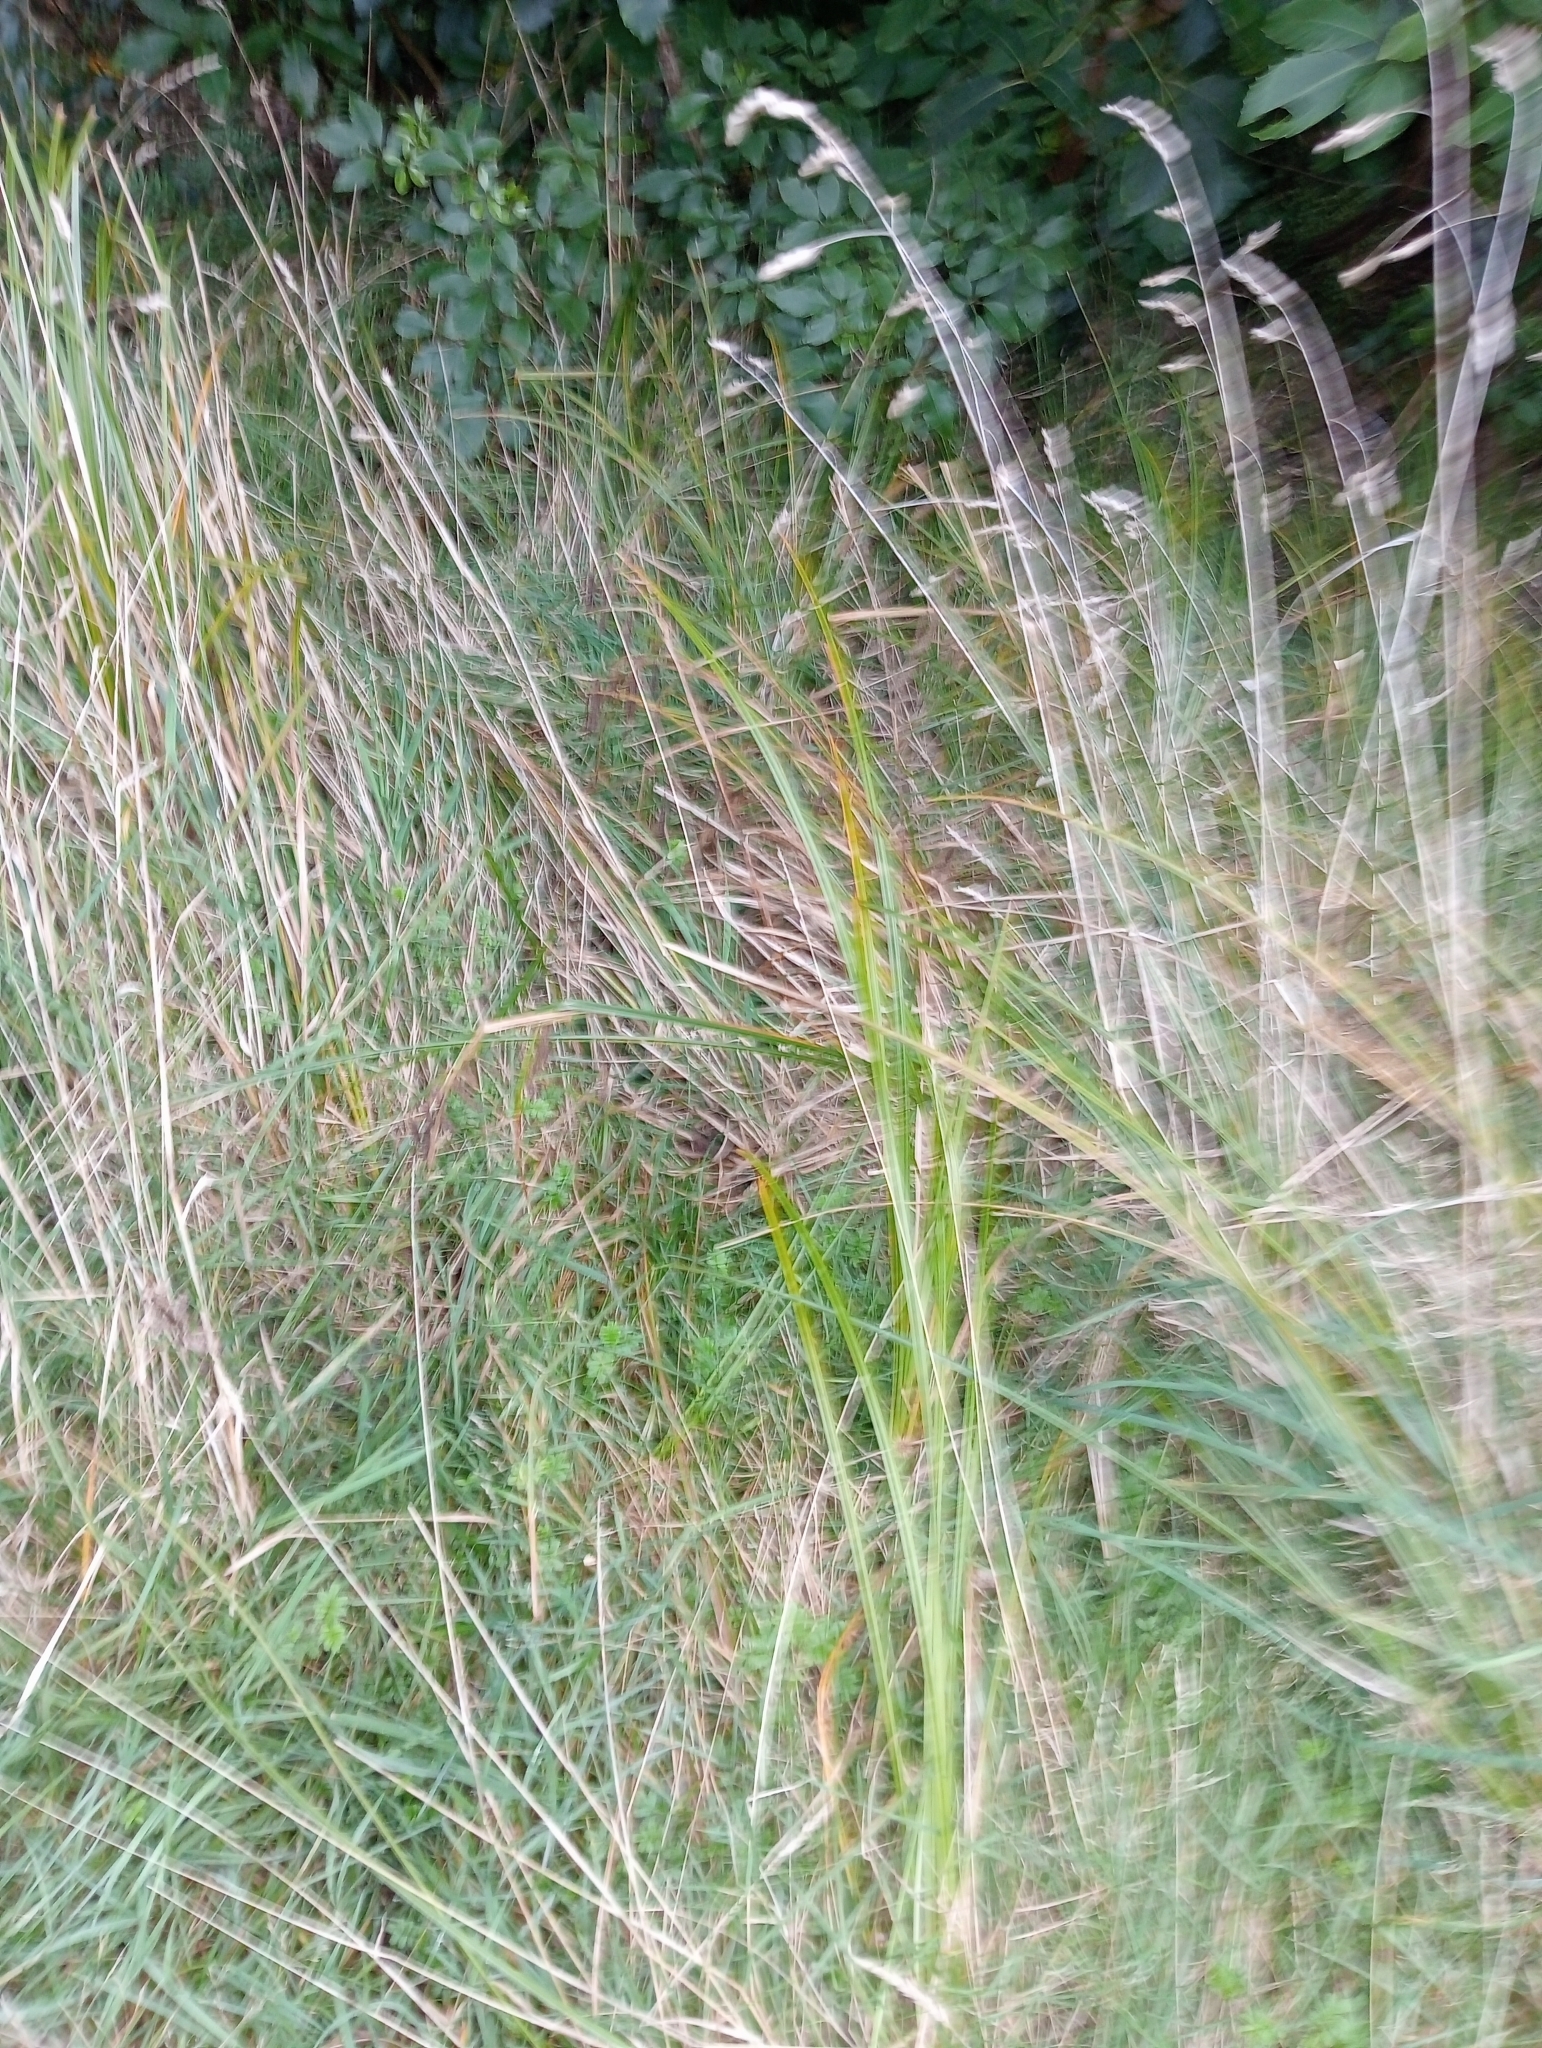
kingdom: Plantae
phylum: Tracheophyta
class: Liliopsida
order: Poales
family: Cyperaceae
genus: Carex
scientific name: Carex geminata
